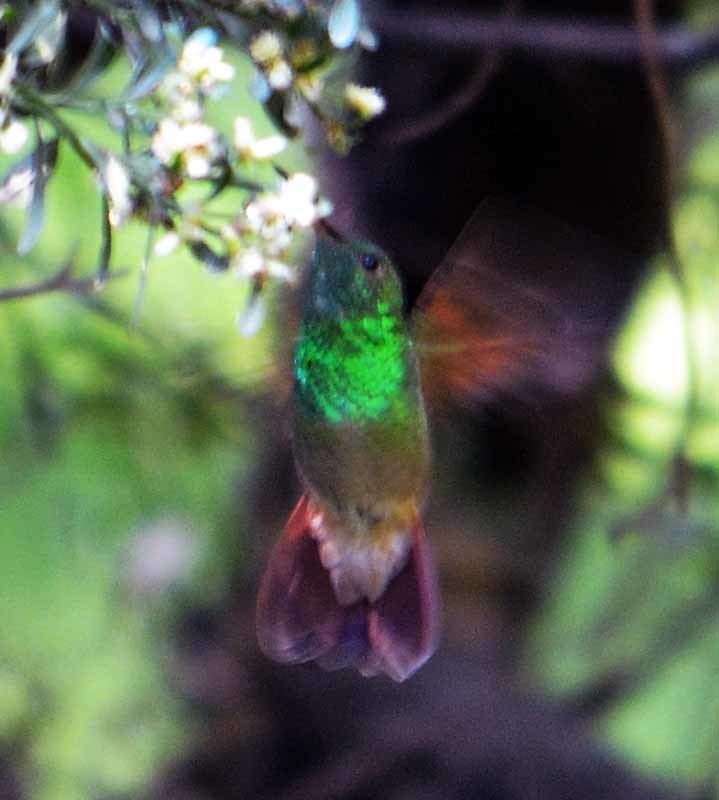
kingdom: Animalia
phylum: Chordata
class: Aves
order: Apodiformes
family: Trochilidae
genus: Saucerottia
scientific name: Saucerottia beryllina
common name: Berylline hummingbird
